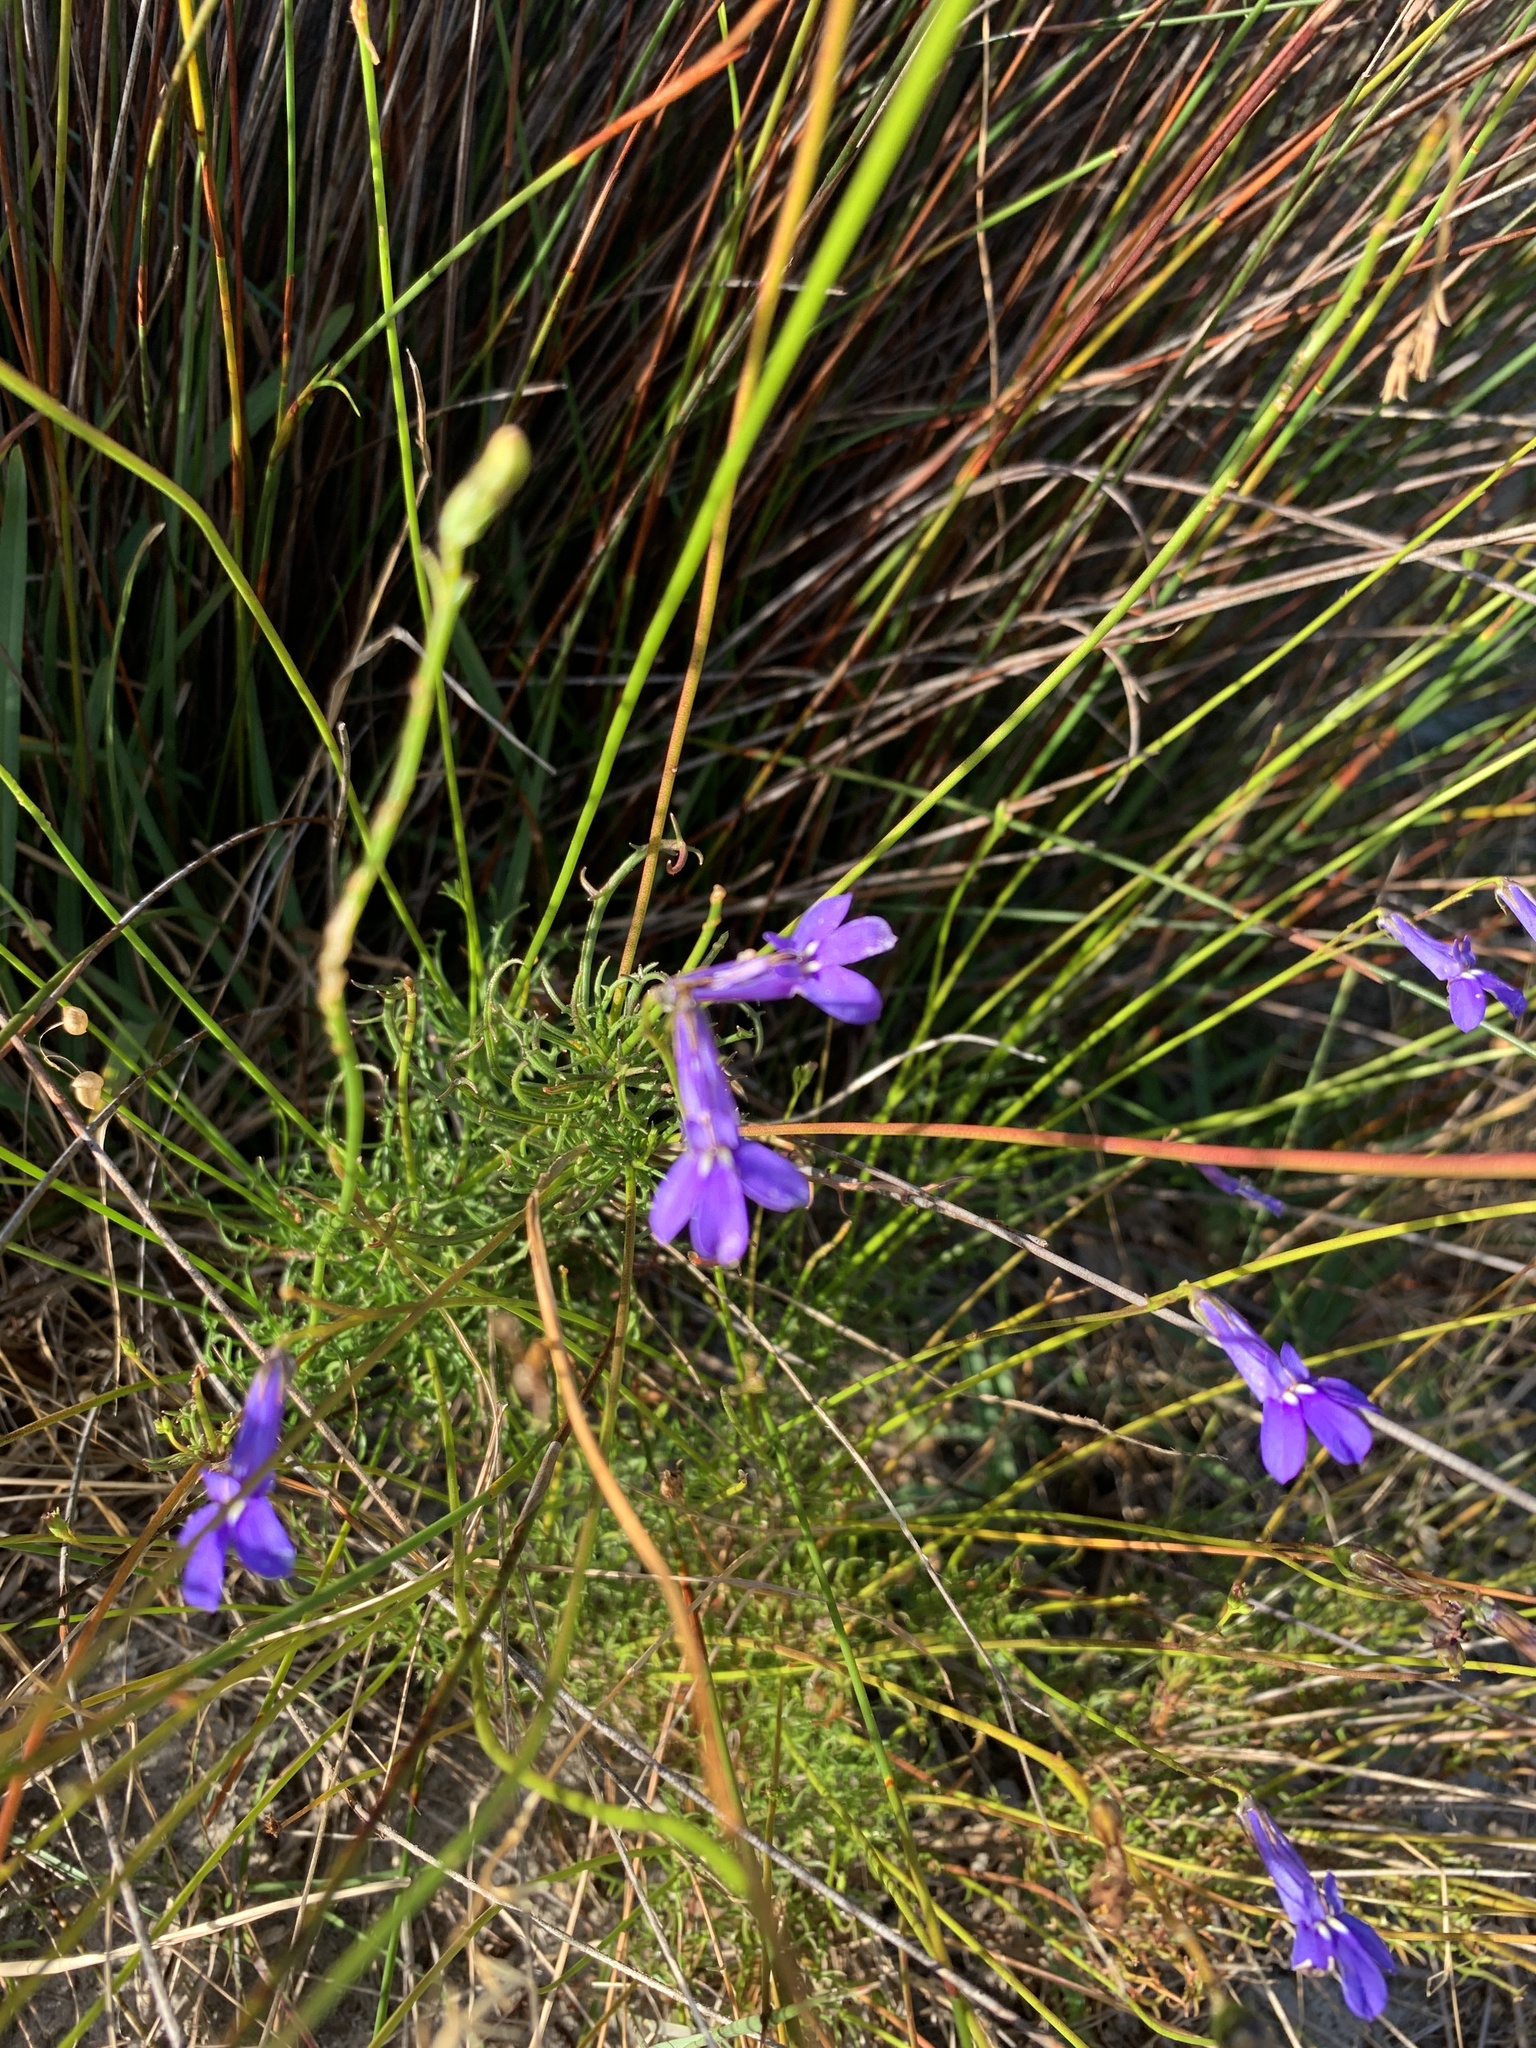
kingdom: Plantae
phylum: Tracheophyta
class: Magnoliopsida
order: Asterales
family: Campanulaceae
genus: Lobelia
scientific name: Lobelia coronopifolia
